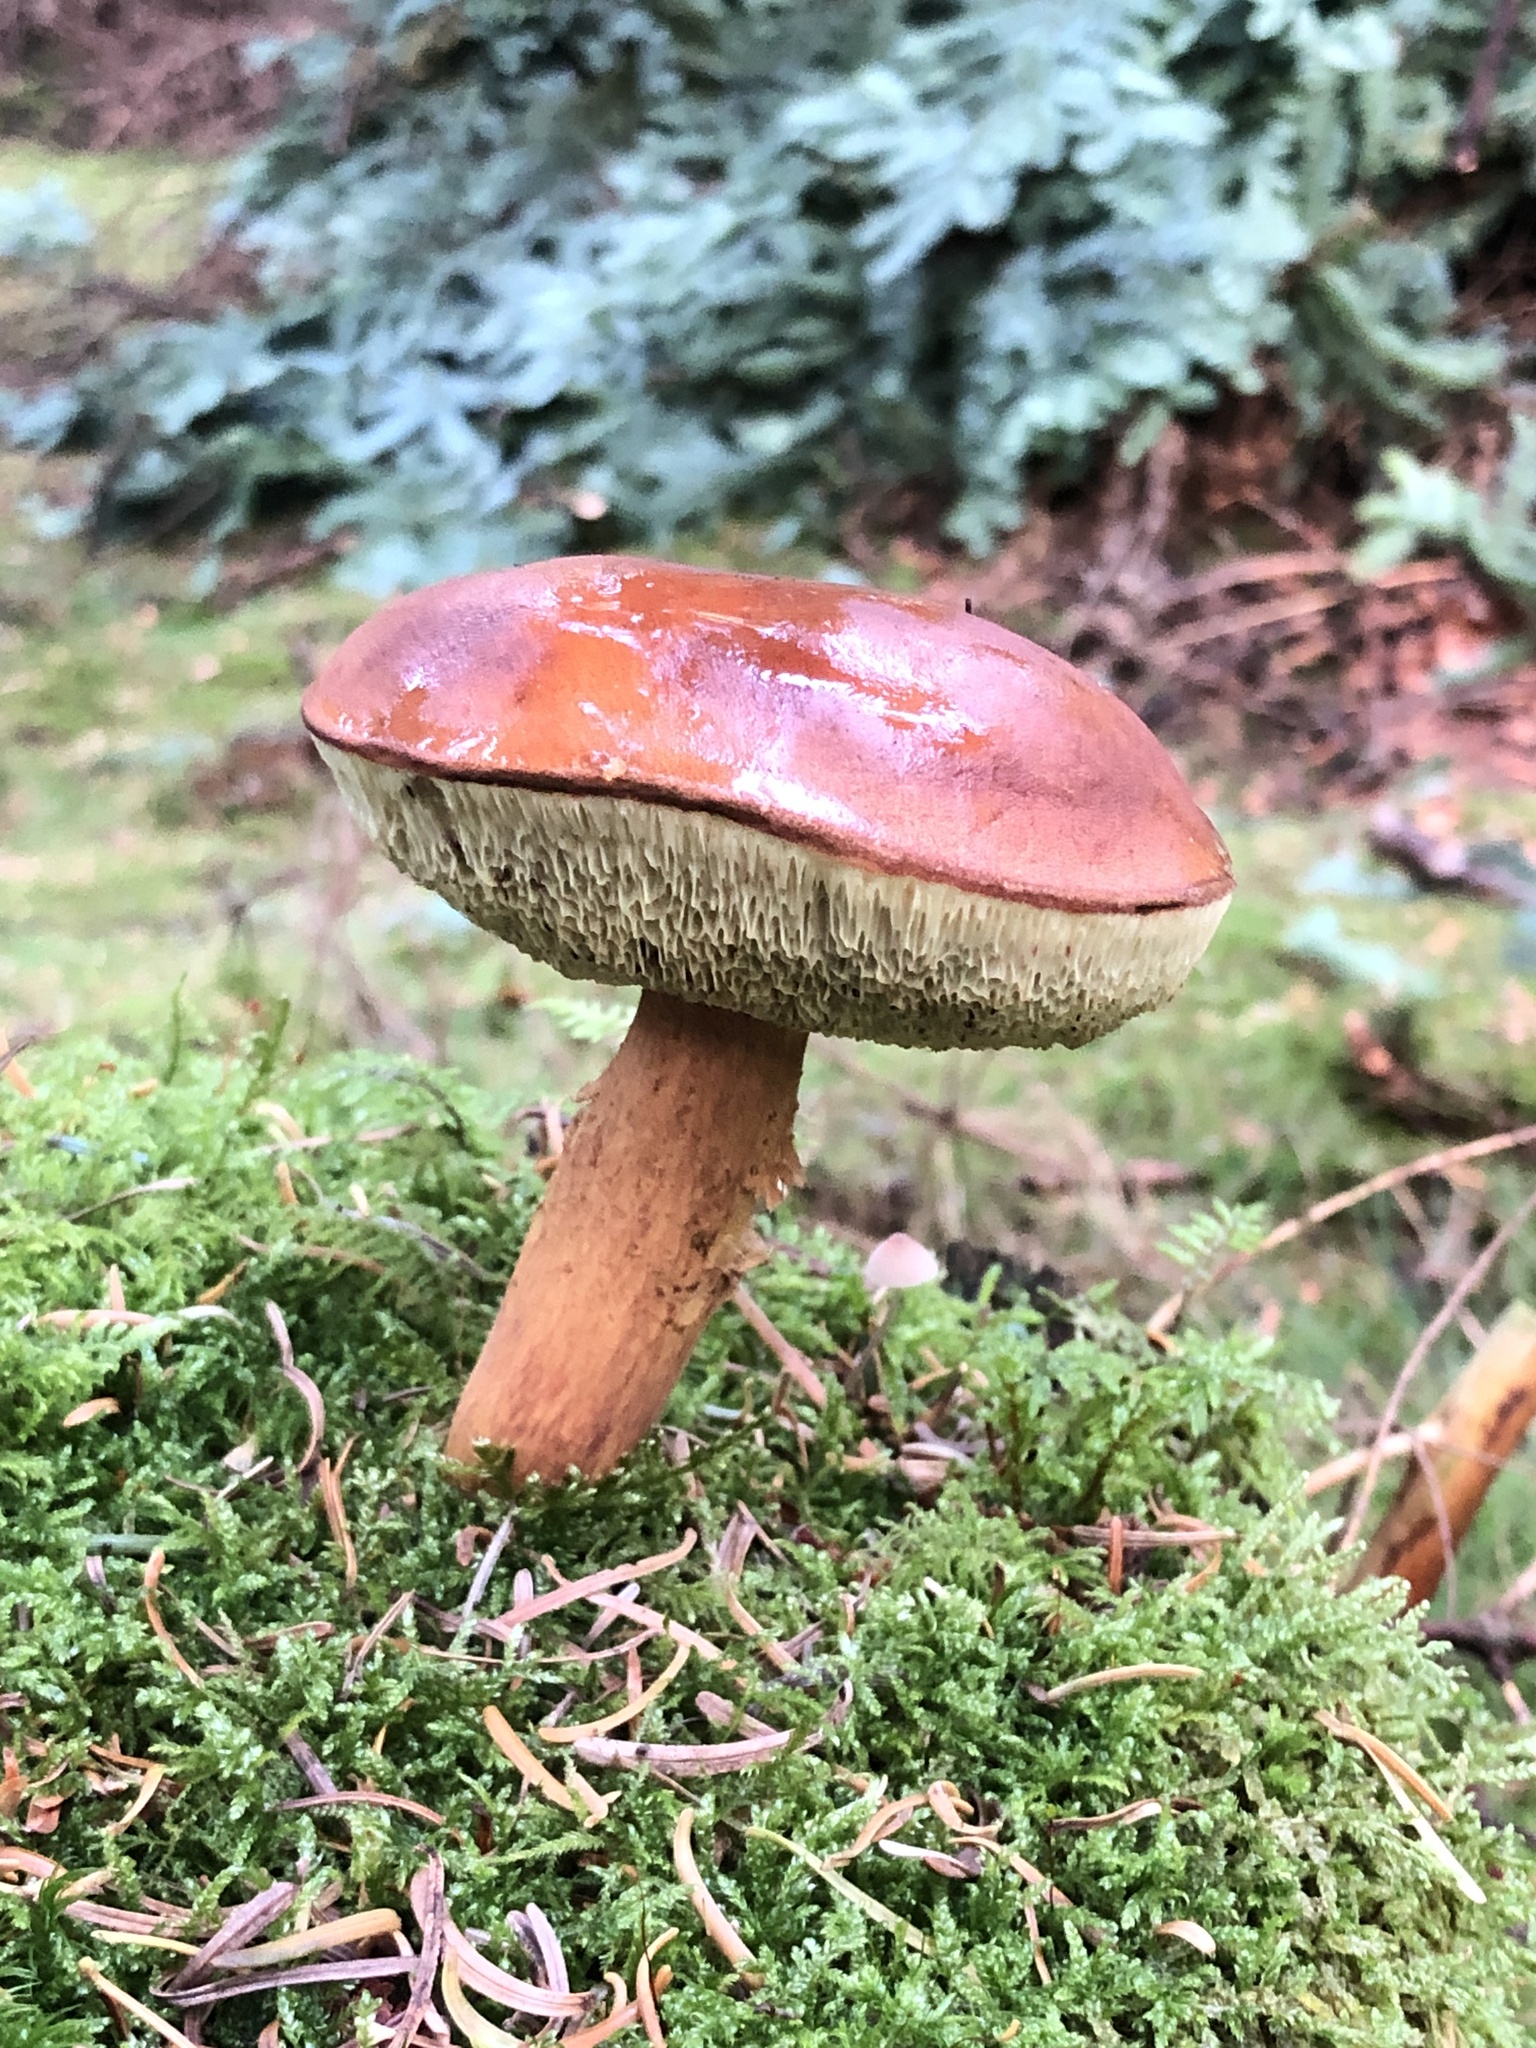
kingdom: Fungi
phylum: Basidiomycota
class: Agaricomycetes
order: Boletales
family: Boletaceae
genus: Imleria
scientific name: Imleria badia
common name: Bay bolete
